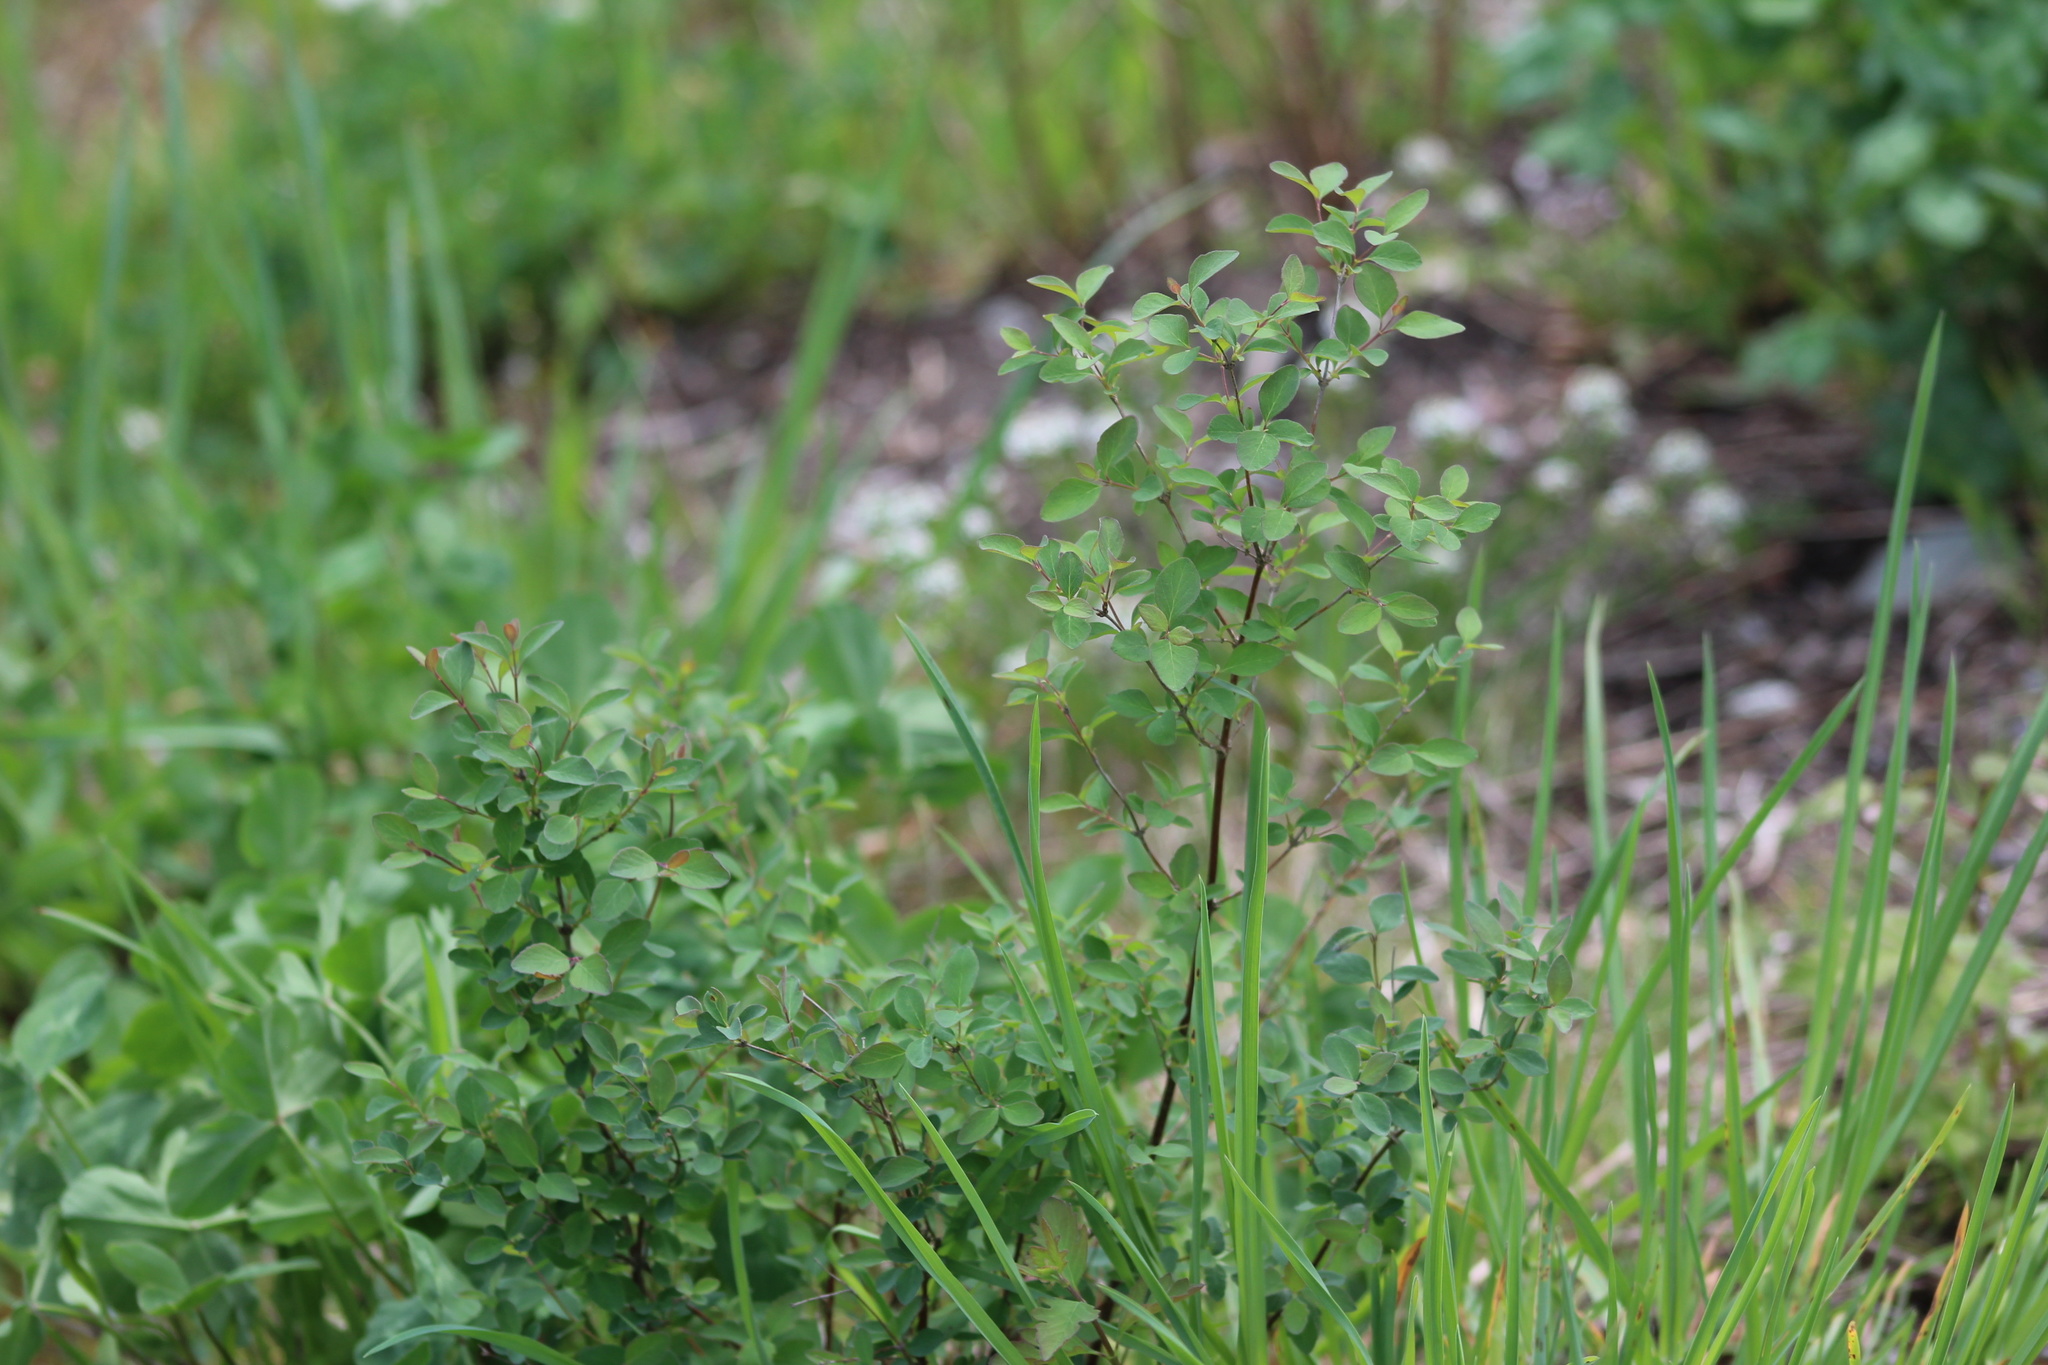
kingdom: Plantae
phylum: Tracheophyta
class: Magnoliopsida
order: Dipsacales
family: Caprifoliaceae
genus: Symphoricarpos
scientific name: Symphoricarpos albus
